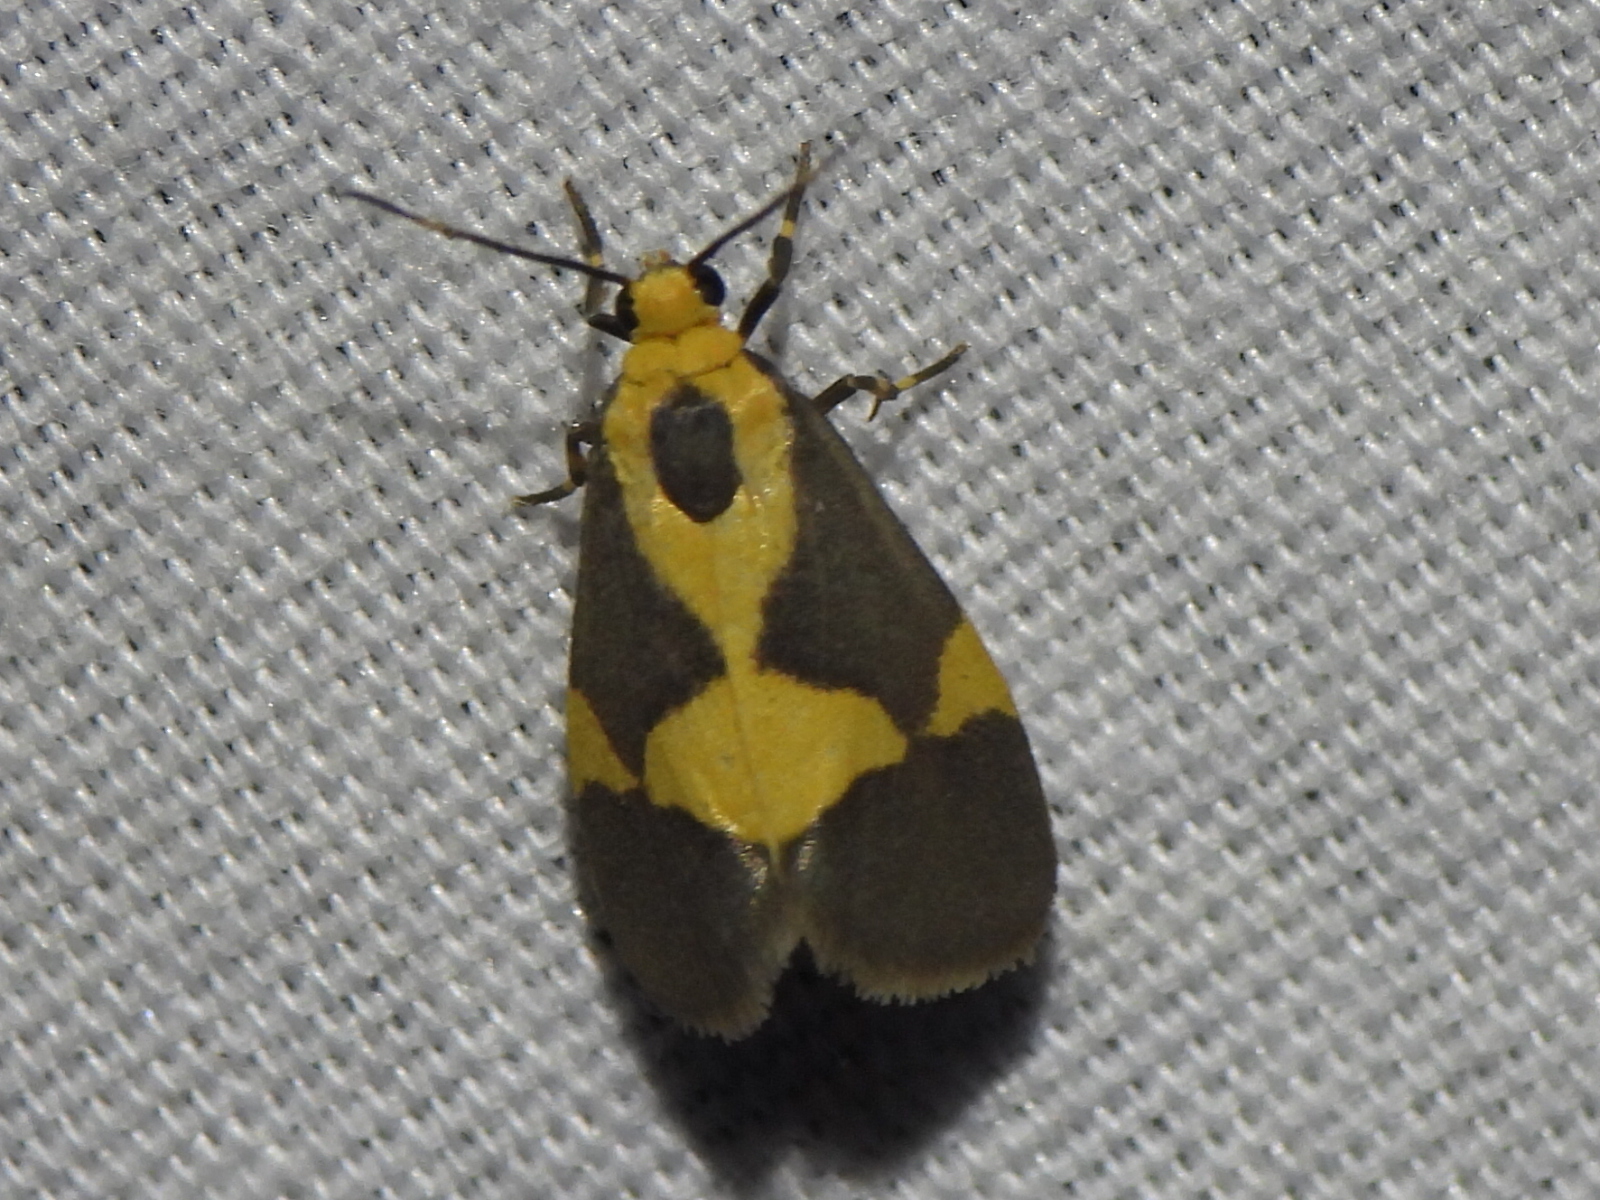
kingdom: Animalia
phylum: Arthropoda
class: Insecta
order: Lepidoptera
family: Erebidae
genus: Cisthene
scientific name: Cisthene unifascia
